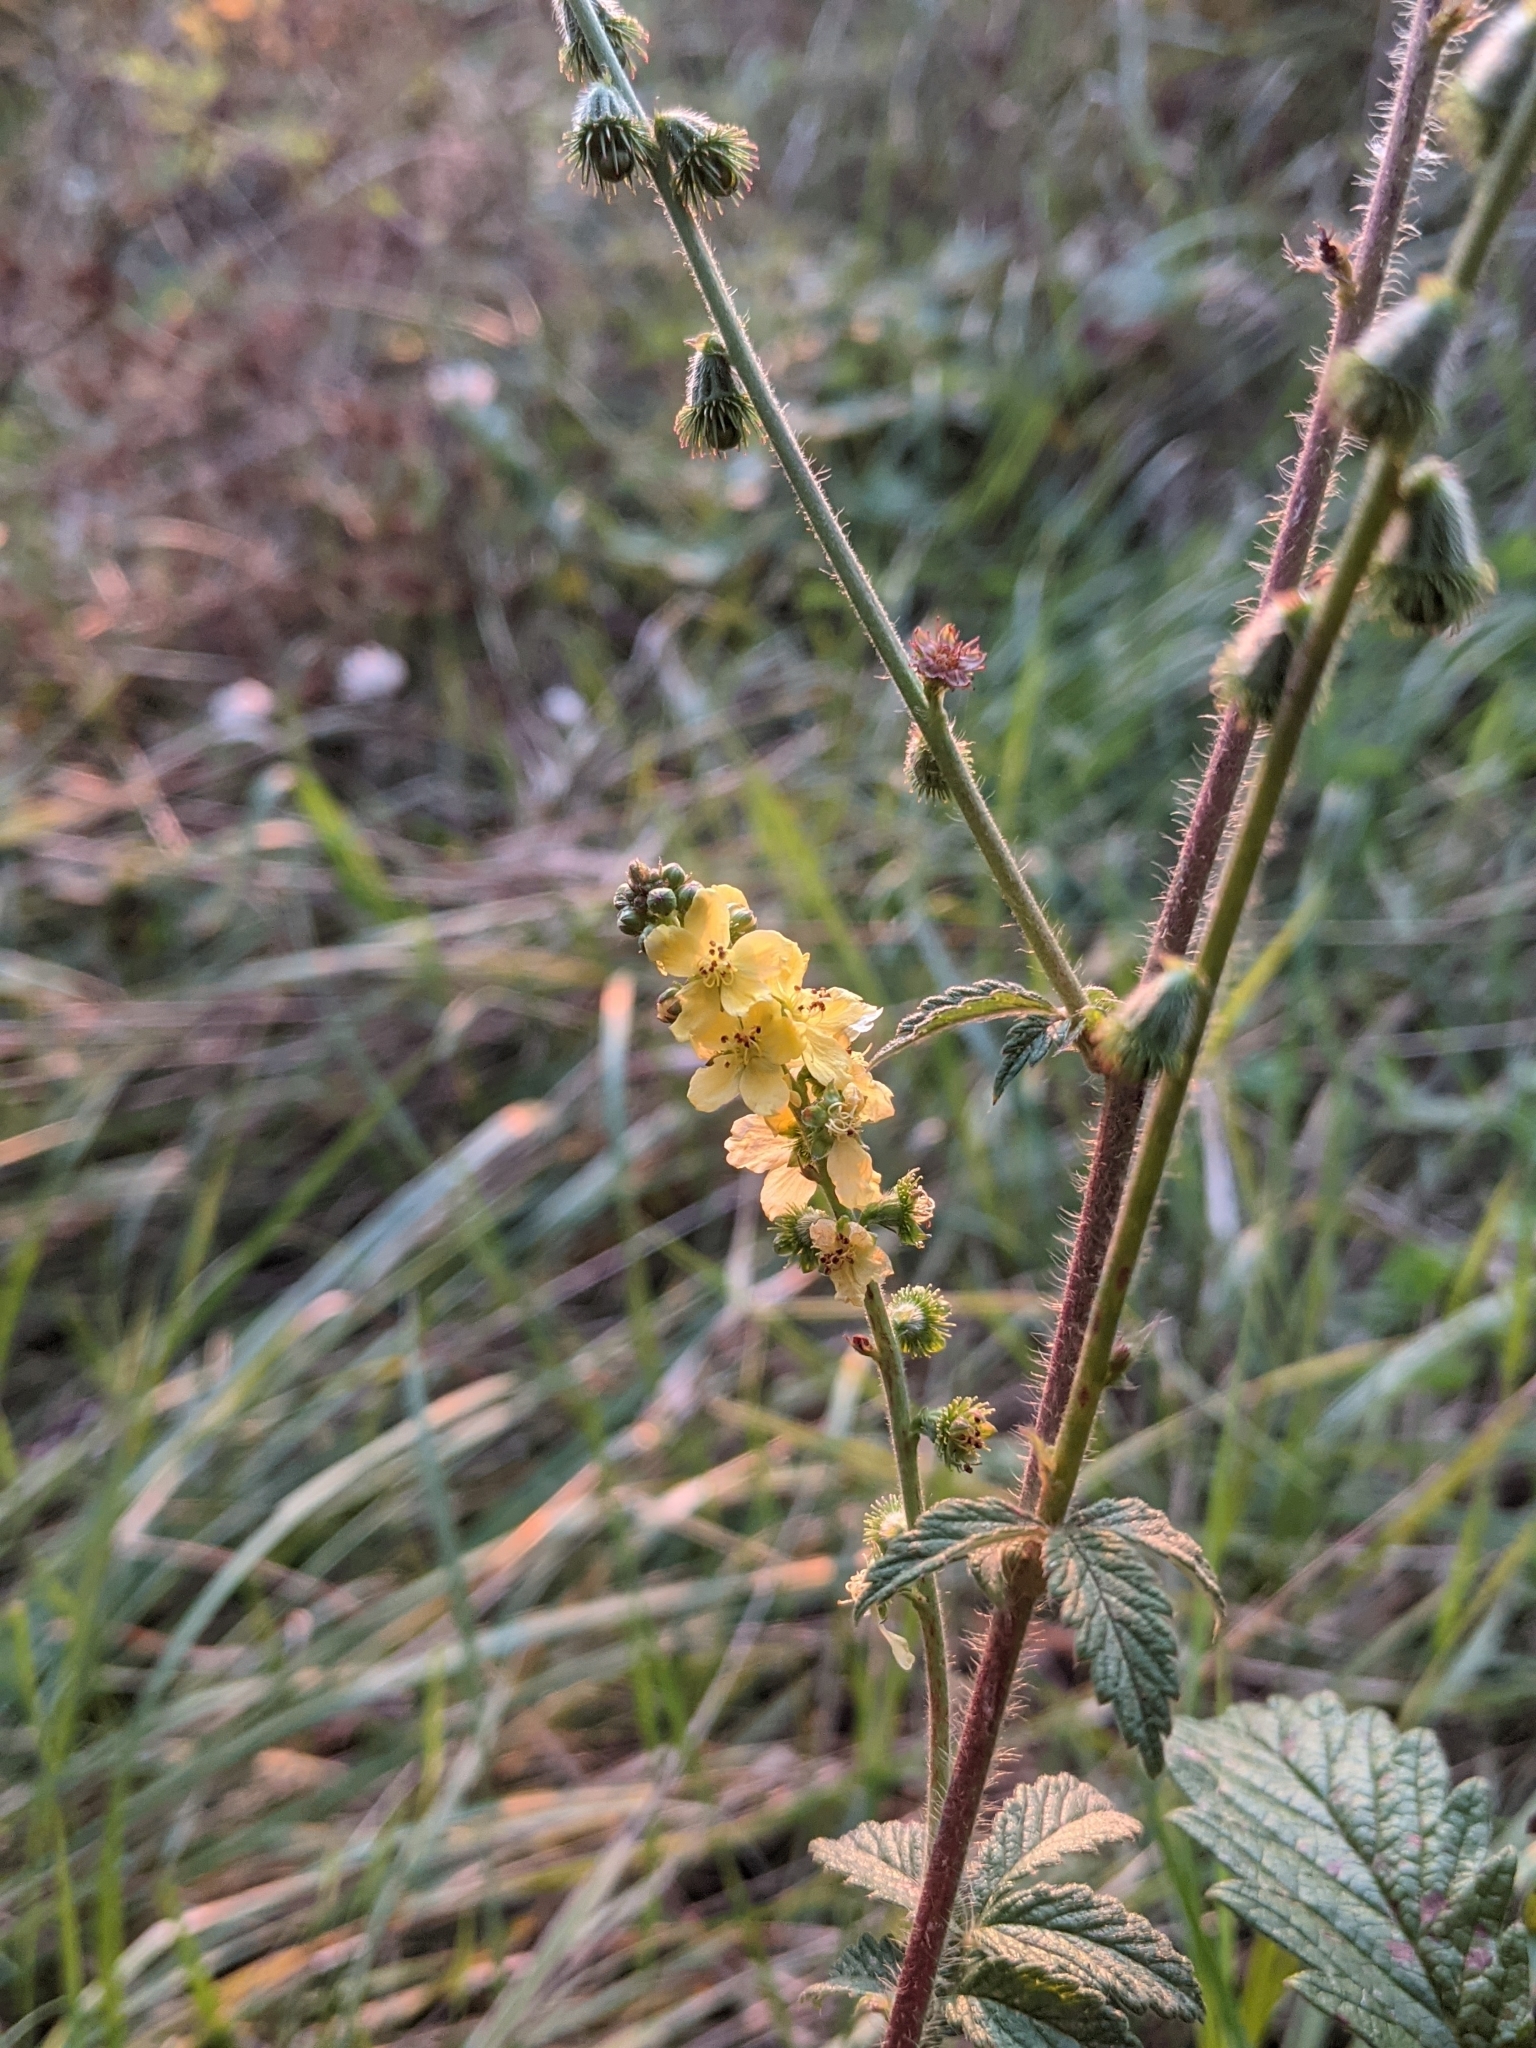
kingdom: Plantae
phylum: Tracheophyta
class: Magnoliopsida
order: Rosales
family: Rosaceae
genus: Agrimonia
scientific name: Agrimonia eupatoria
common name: Agrimony
